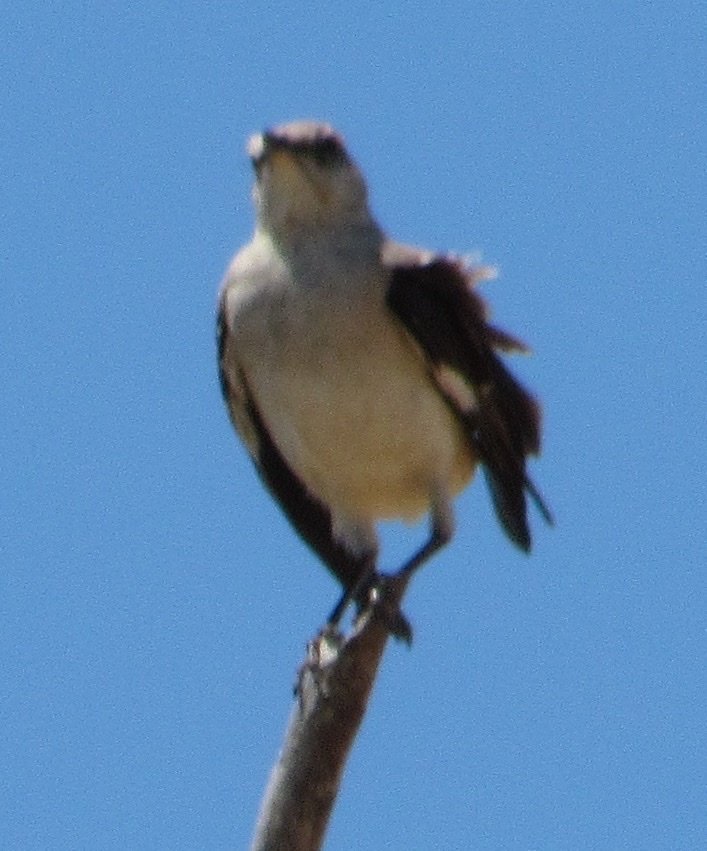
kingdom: Animalia
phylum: Chordata
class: Aves
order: Passeriformes
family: Mimidae
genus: Mimus
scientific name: Mimus polyglottos
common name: Northern mockingbird
